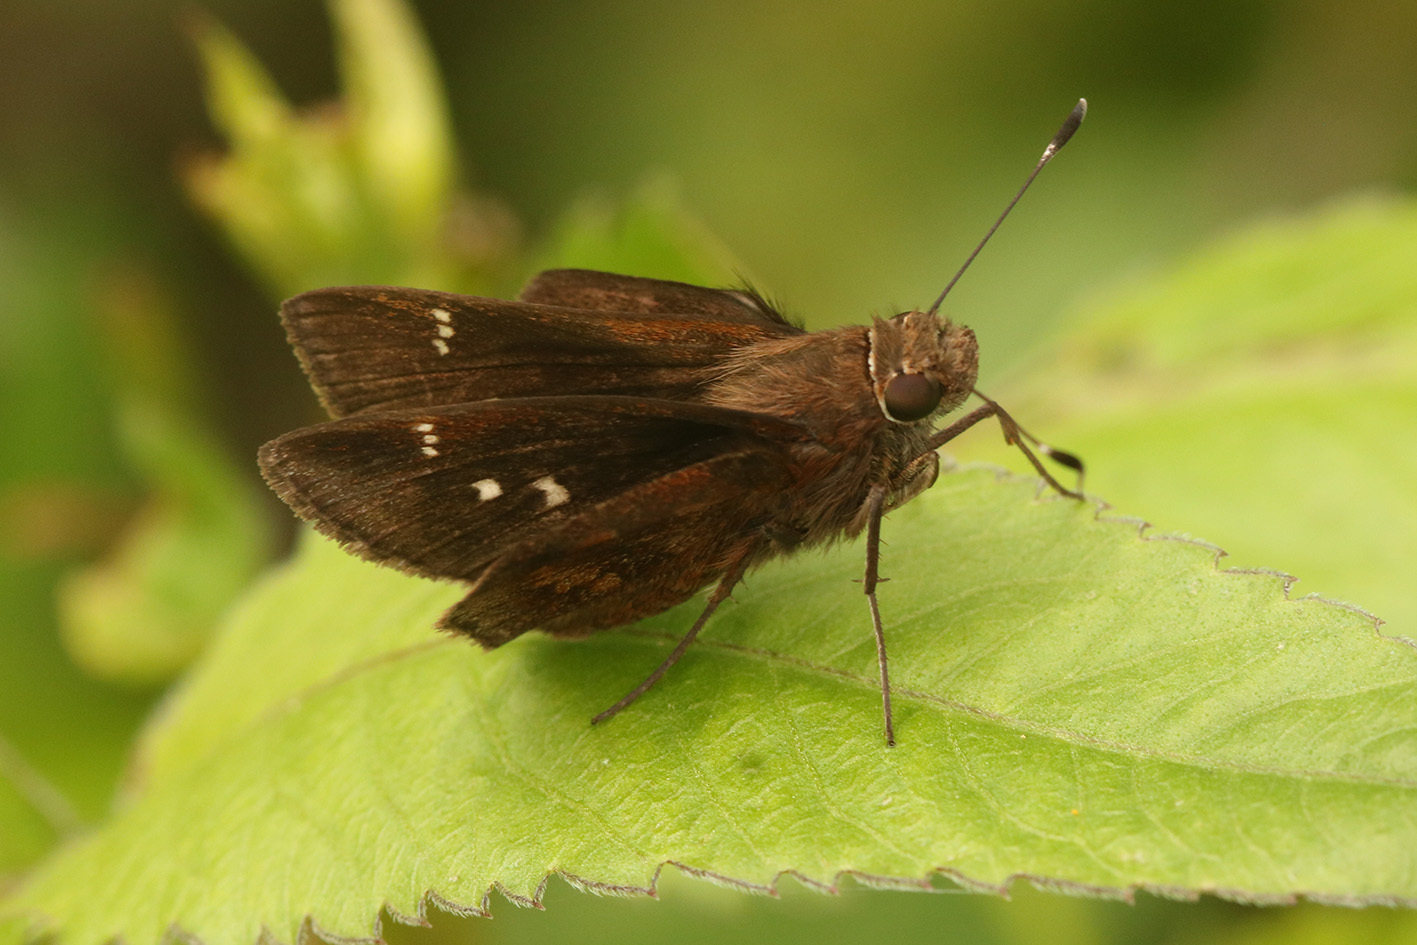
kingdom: Animalia
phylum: Arthropoda
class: Insecta
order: Lepidoptera
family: Hesperiidae
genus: Quinta
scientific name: Quinta cannae
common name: Canna skipper
